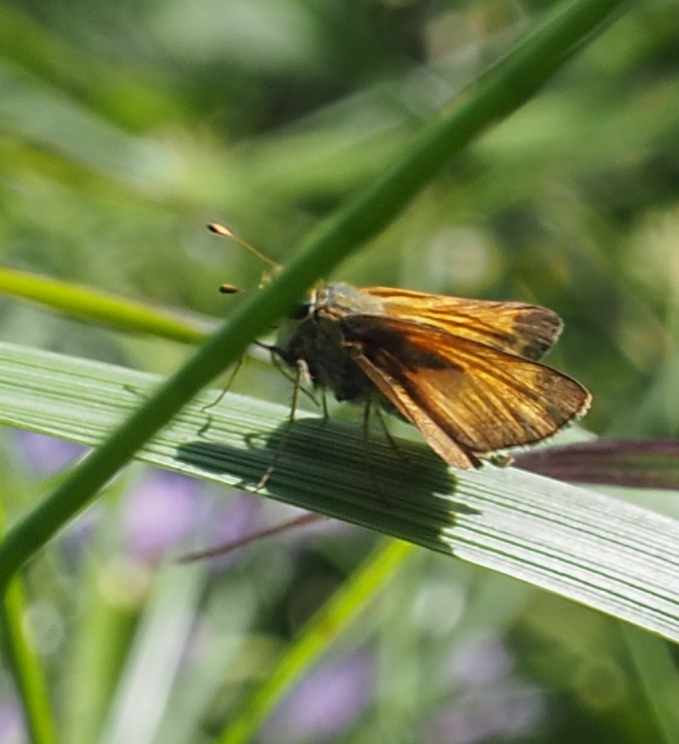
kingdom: Animalia
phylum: Arthropoda
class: Insecta
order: Lepidoptera
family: Hesperiidae
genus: Atalopedes
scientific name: Atalopedes
